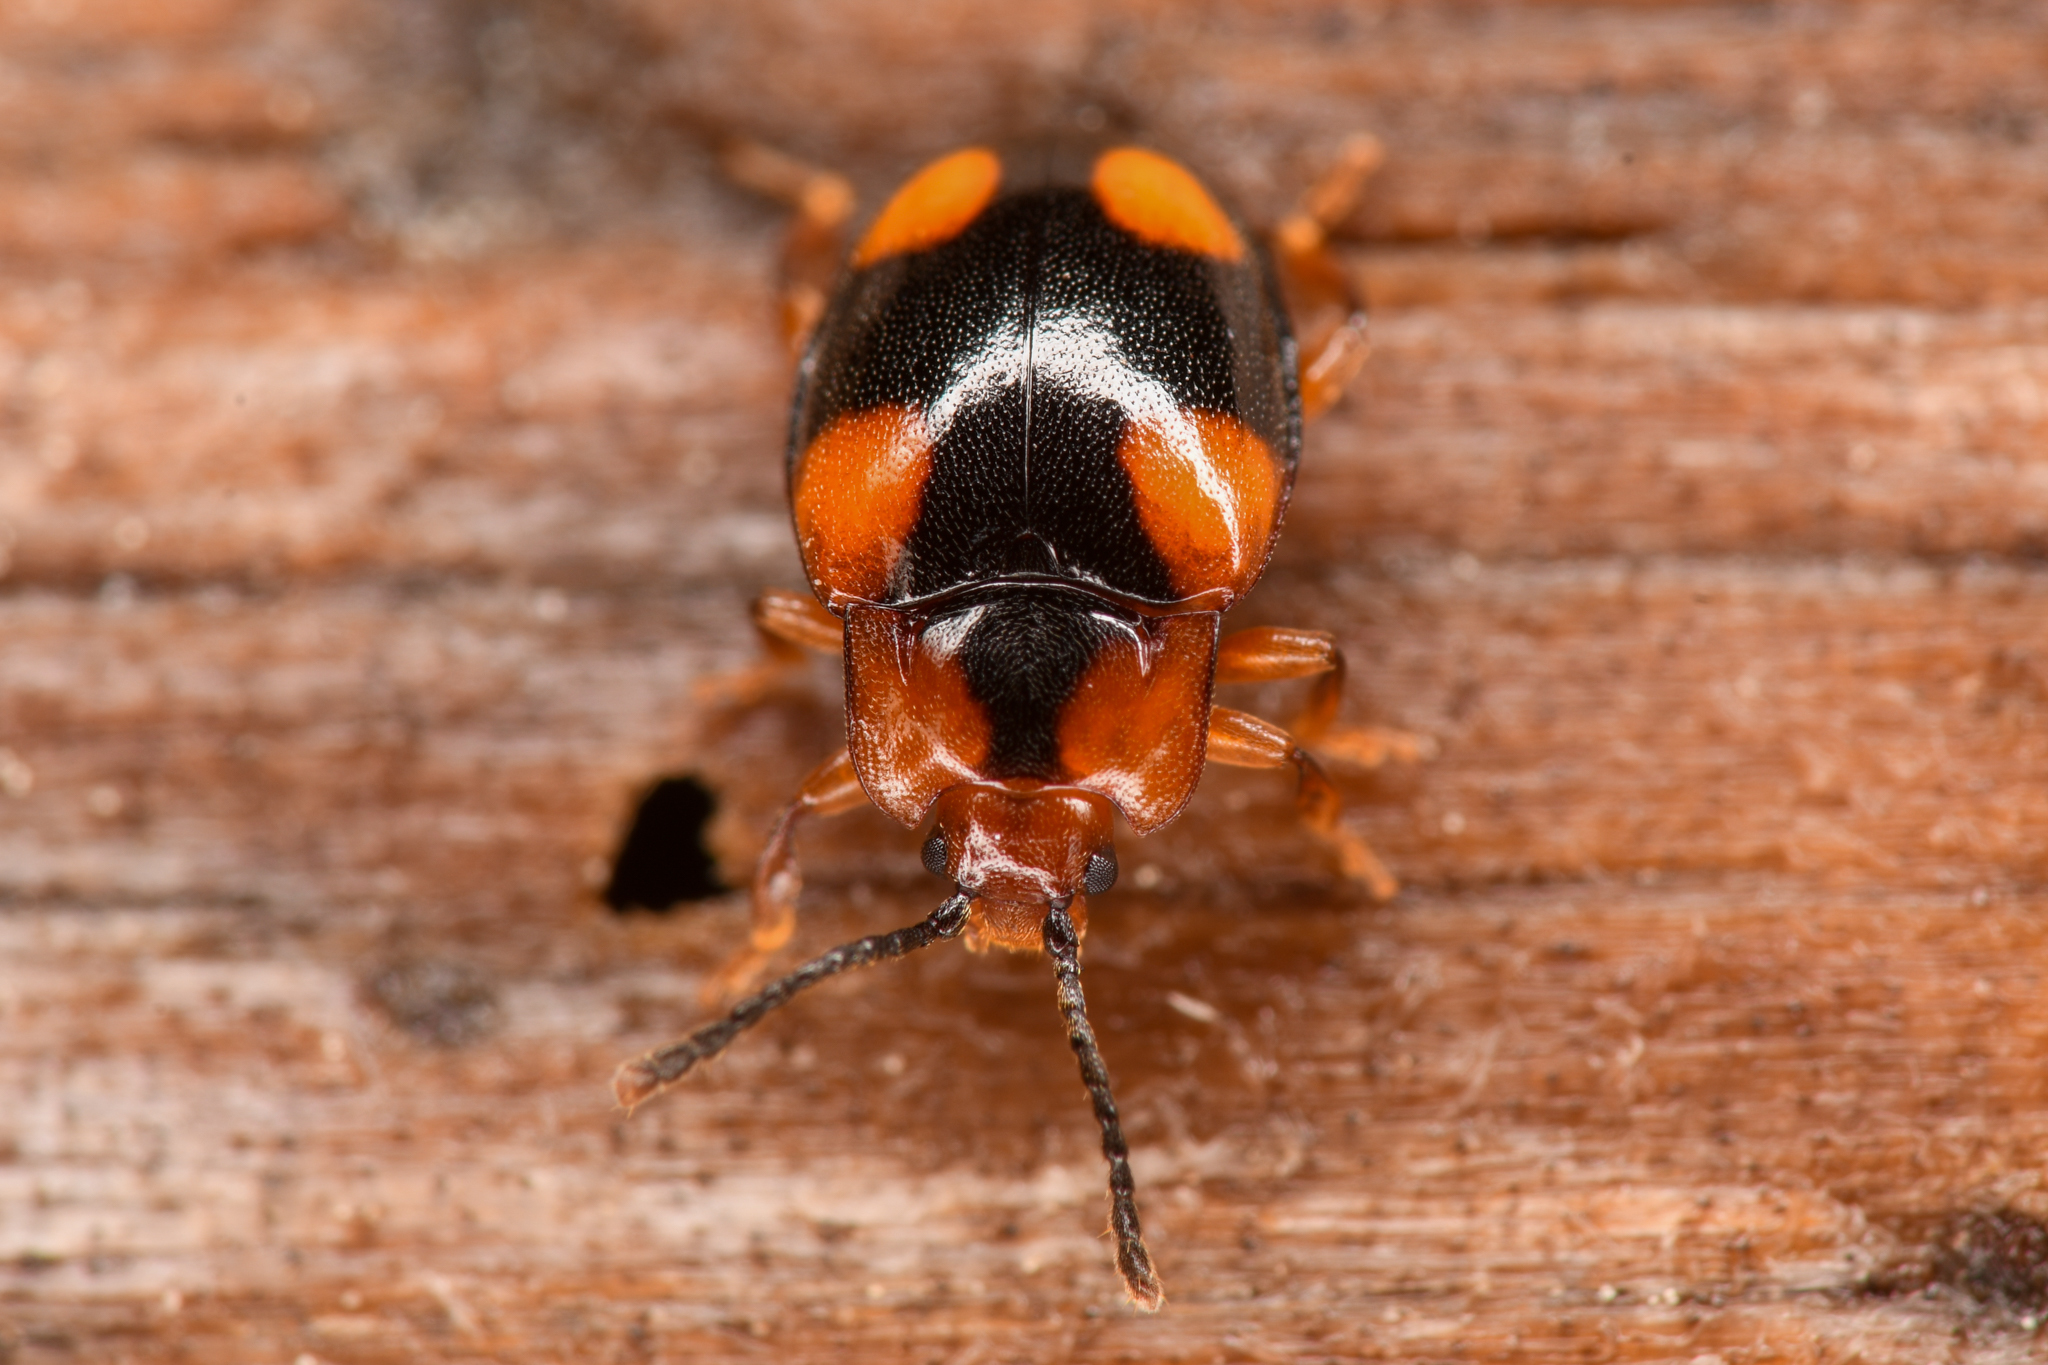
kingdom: Animalia
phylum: Arthropoda
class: Insecta
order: Coleoptera
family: Endomychidae
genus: Mycetina
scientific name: Mycetina hornii
